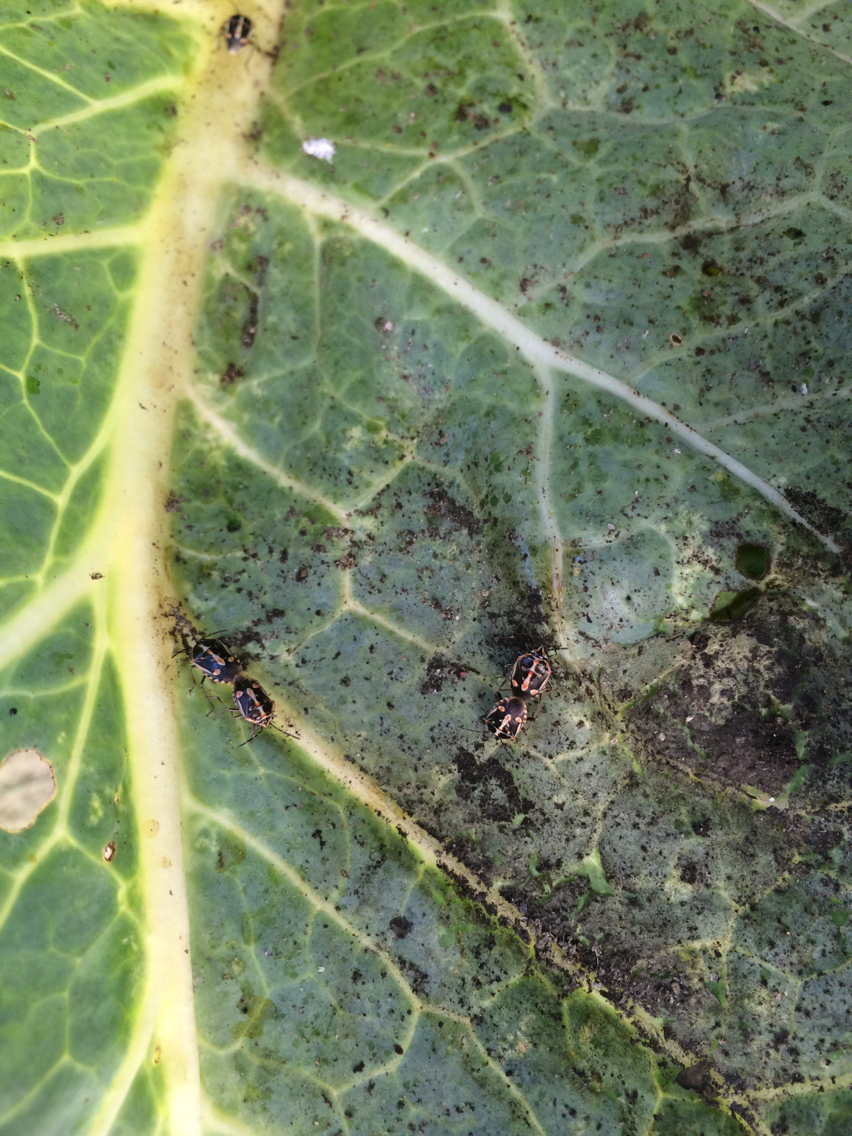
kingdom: Animalia
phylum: Arthropoda
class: Insecta
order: Hemiptera
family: Pentatomidae
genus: Bagrada
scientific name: Bagrada hilaris
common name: Bagrada bug
